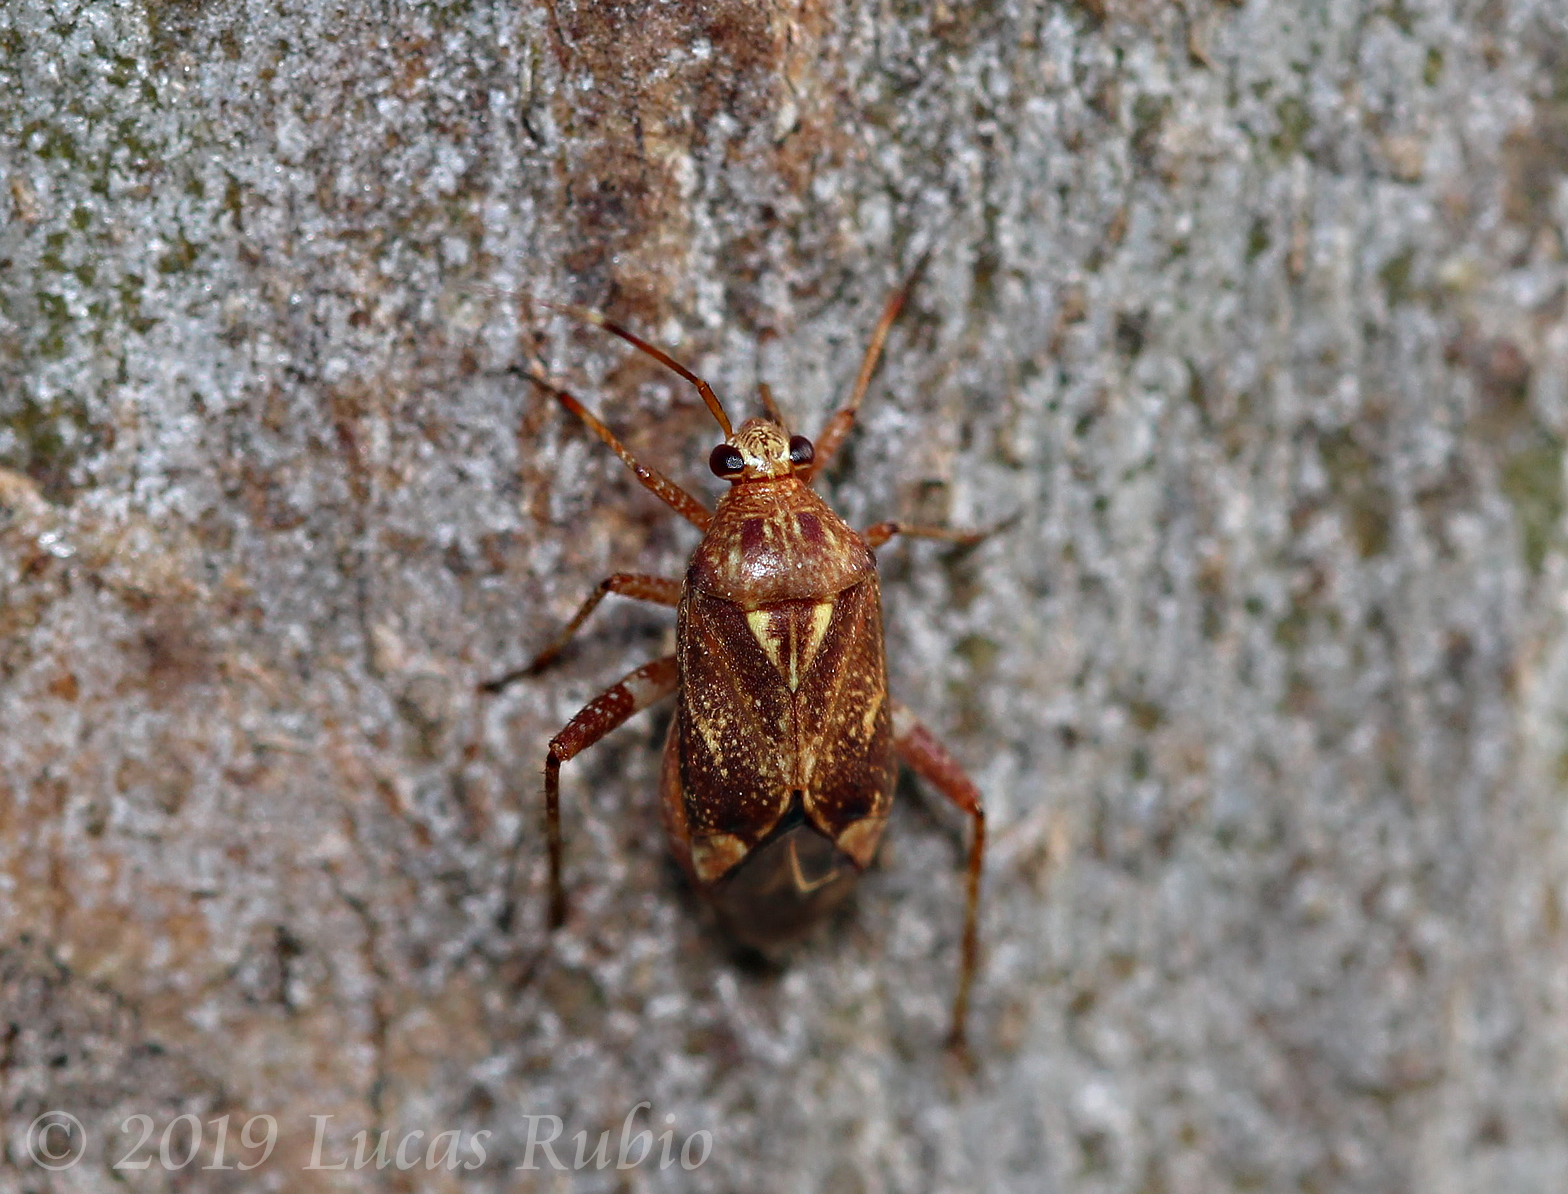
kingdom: Animalia
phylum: Arthropoda
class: Insecta
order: Hemiptera
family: Miridae
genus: Taedia
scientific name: Taedia stigmosa
